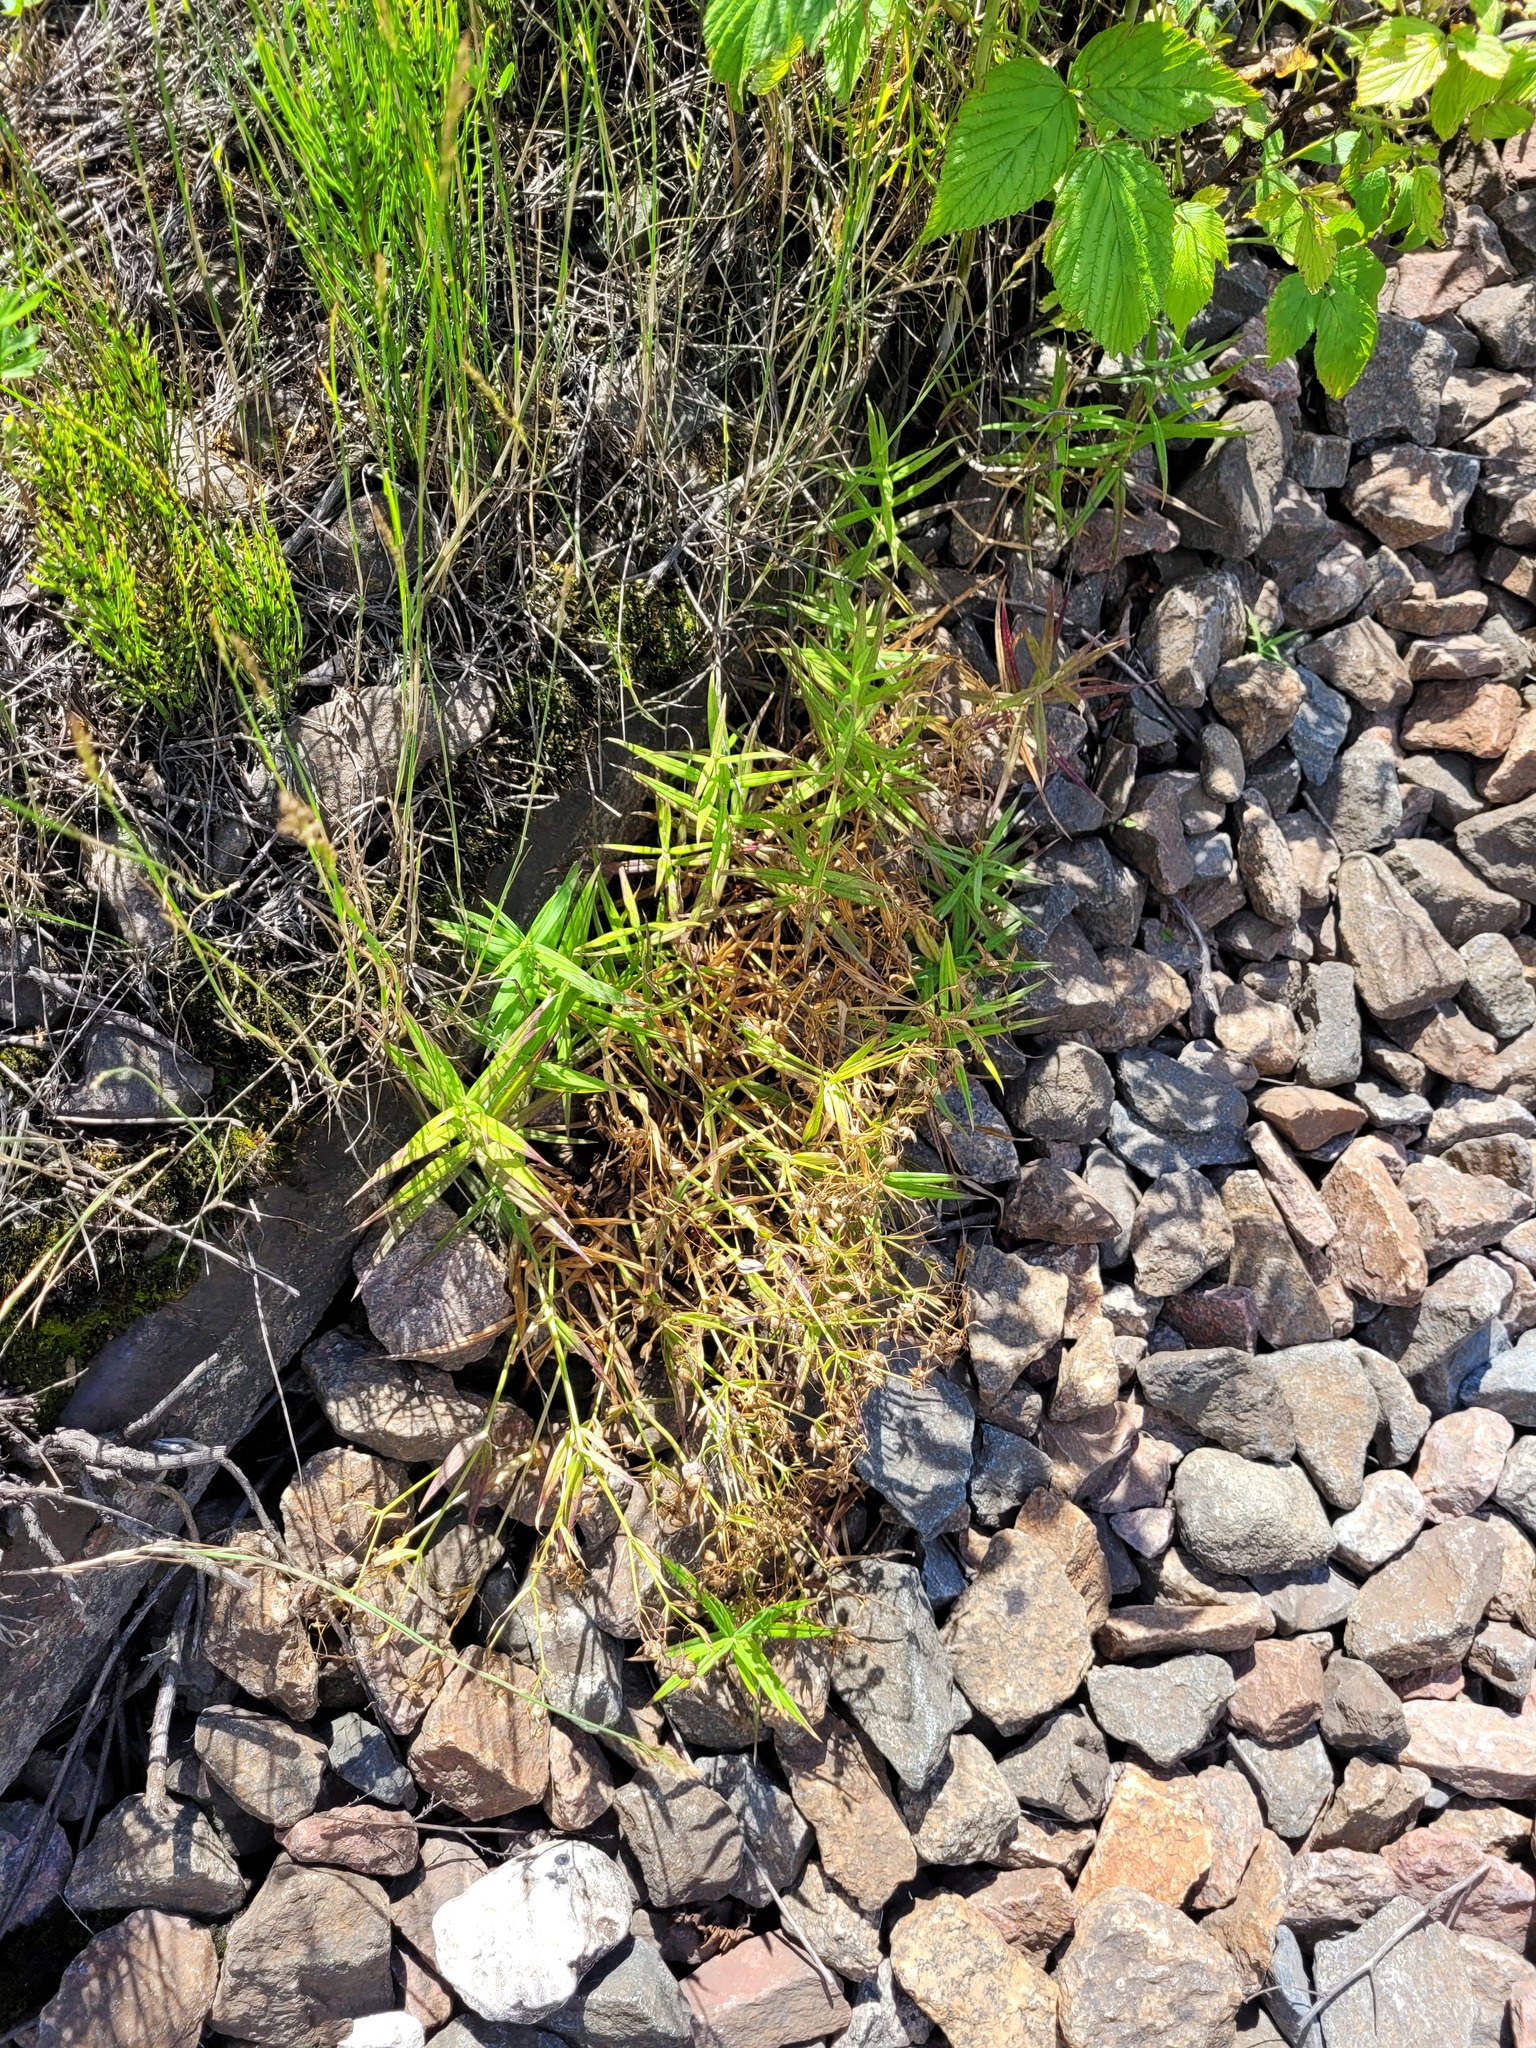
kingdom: Plantae
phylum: Tracheophyta
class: Magnoliopsida
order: Caryophyllales
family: Caryophyllaceae
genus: Rabelera
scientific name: Rabelera holostea
